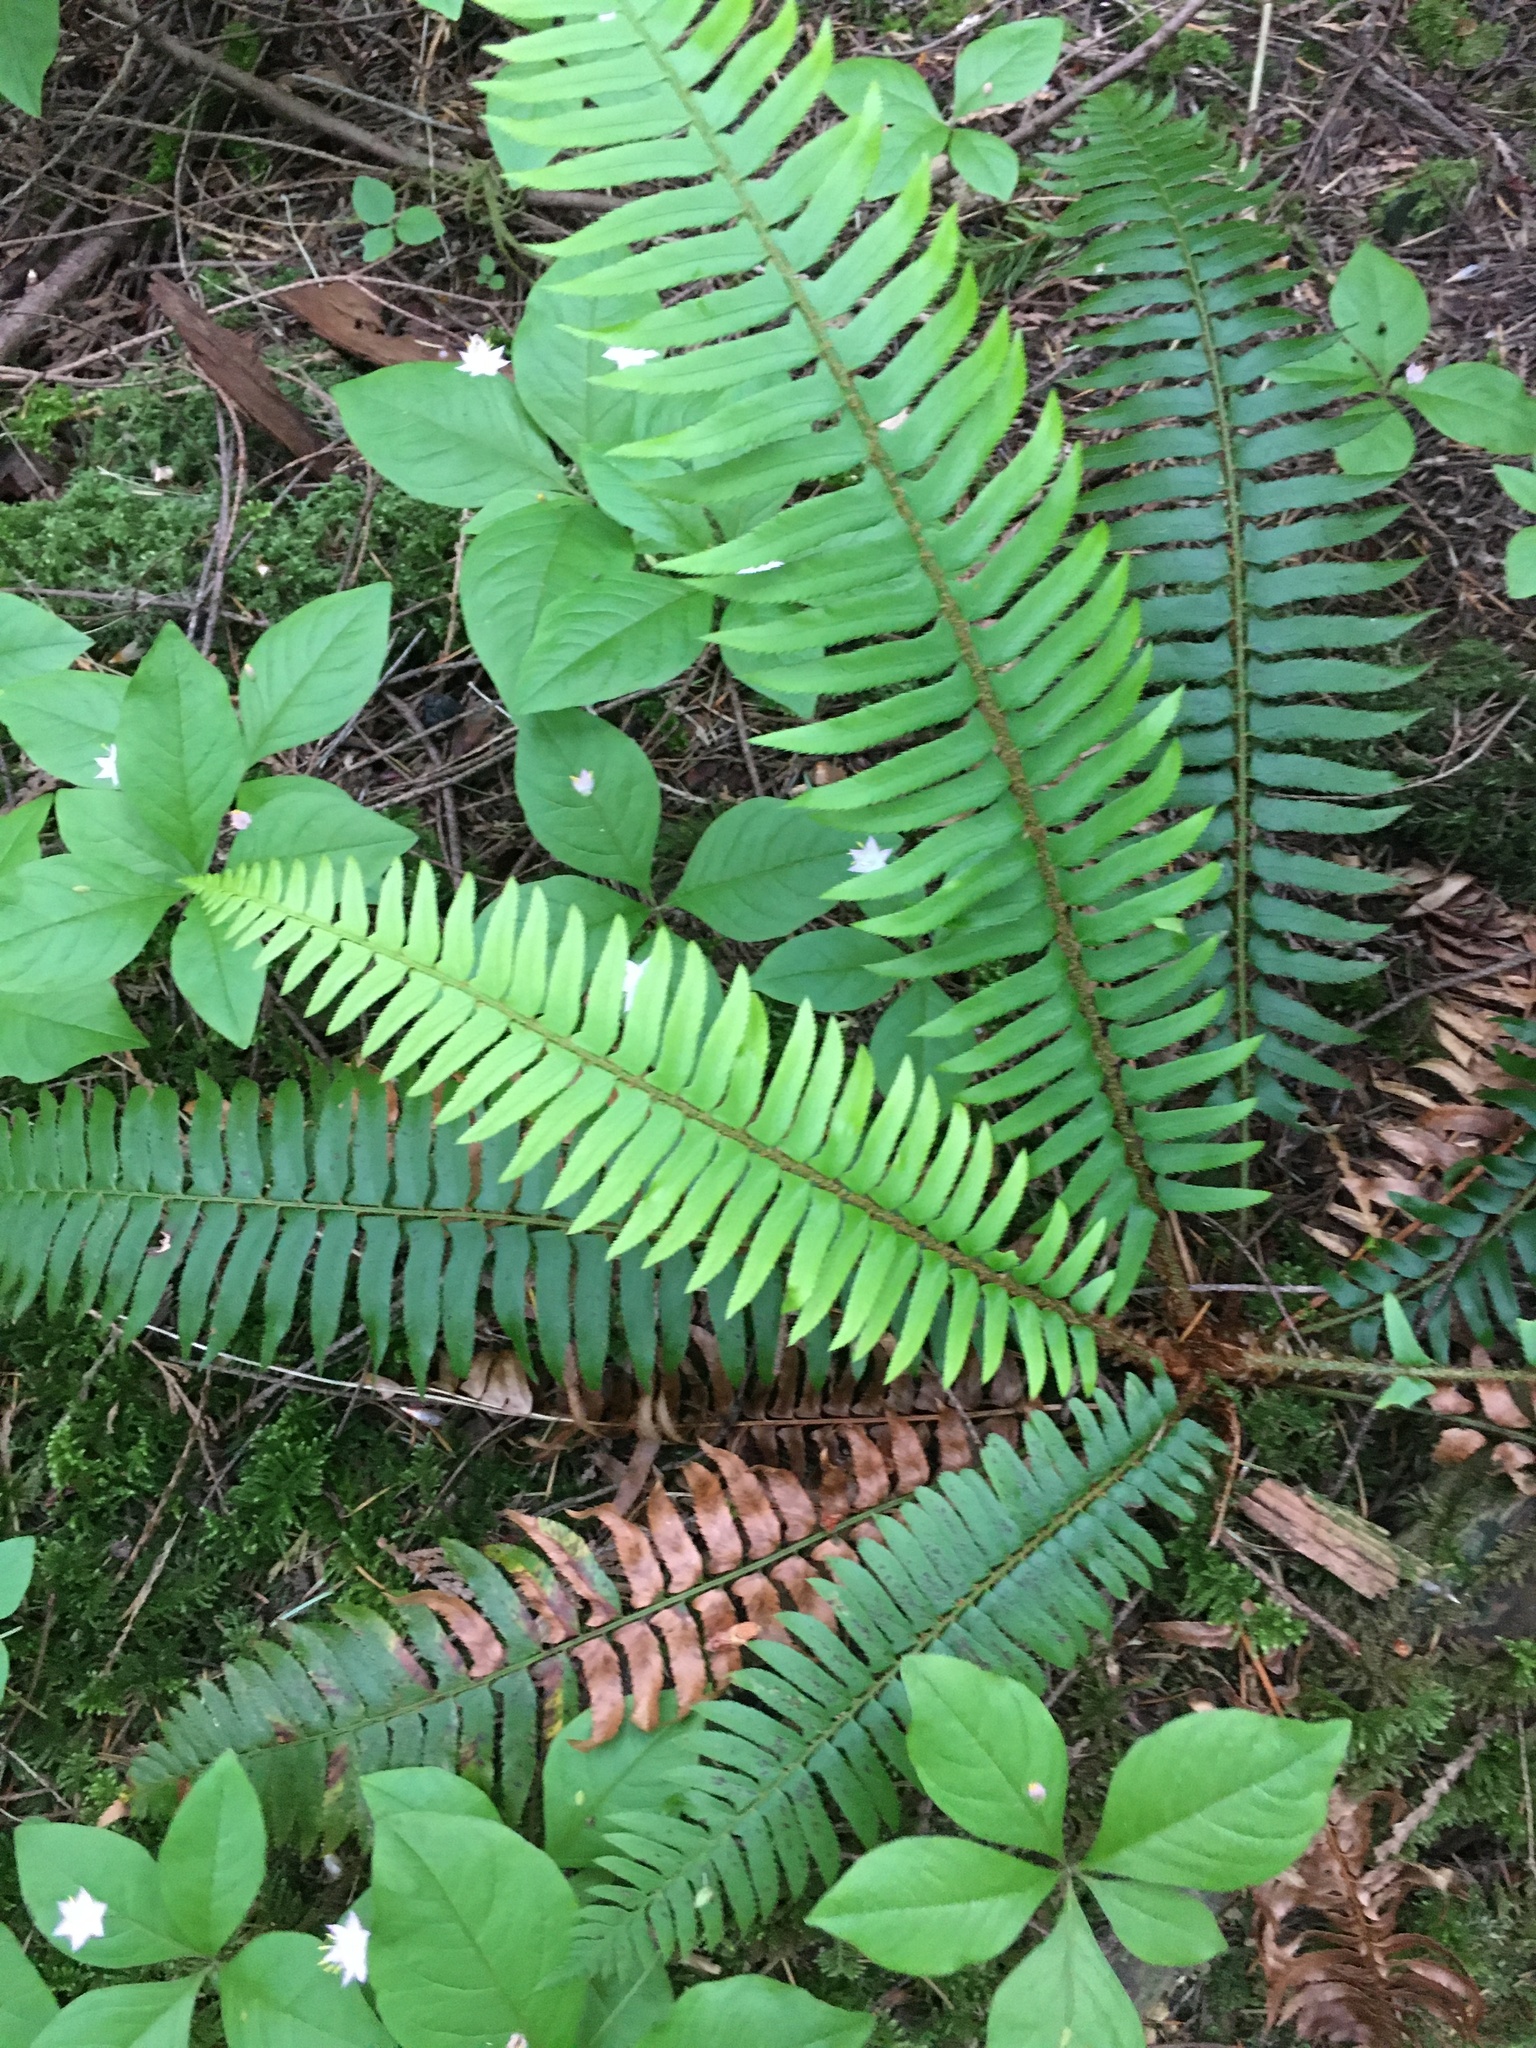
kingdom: Plantae
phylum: Tracheophyta
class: Polypodiopsida
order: Polypodiales
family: Dryopteridaceae
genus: Polystichum
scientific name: Polystichum munitum
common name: Western sword-fern
